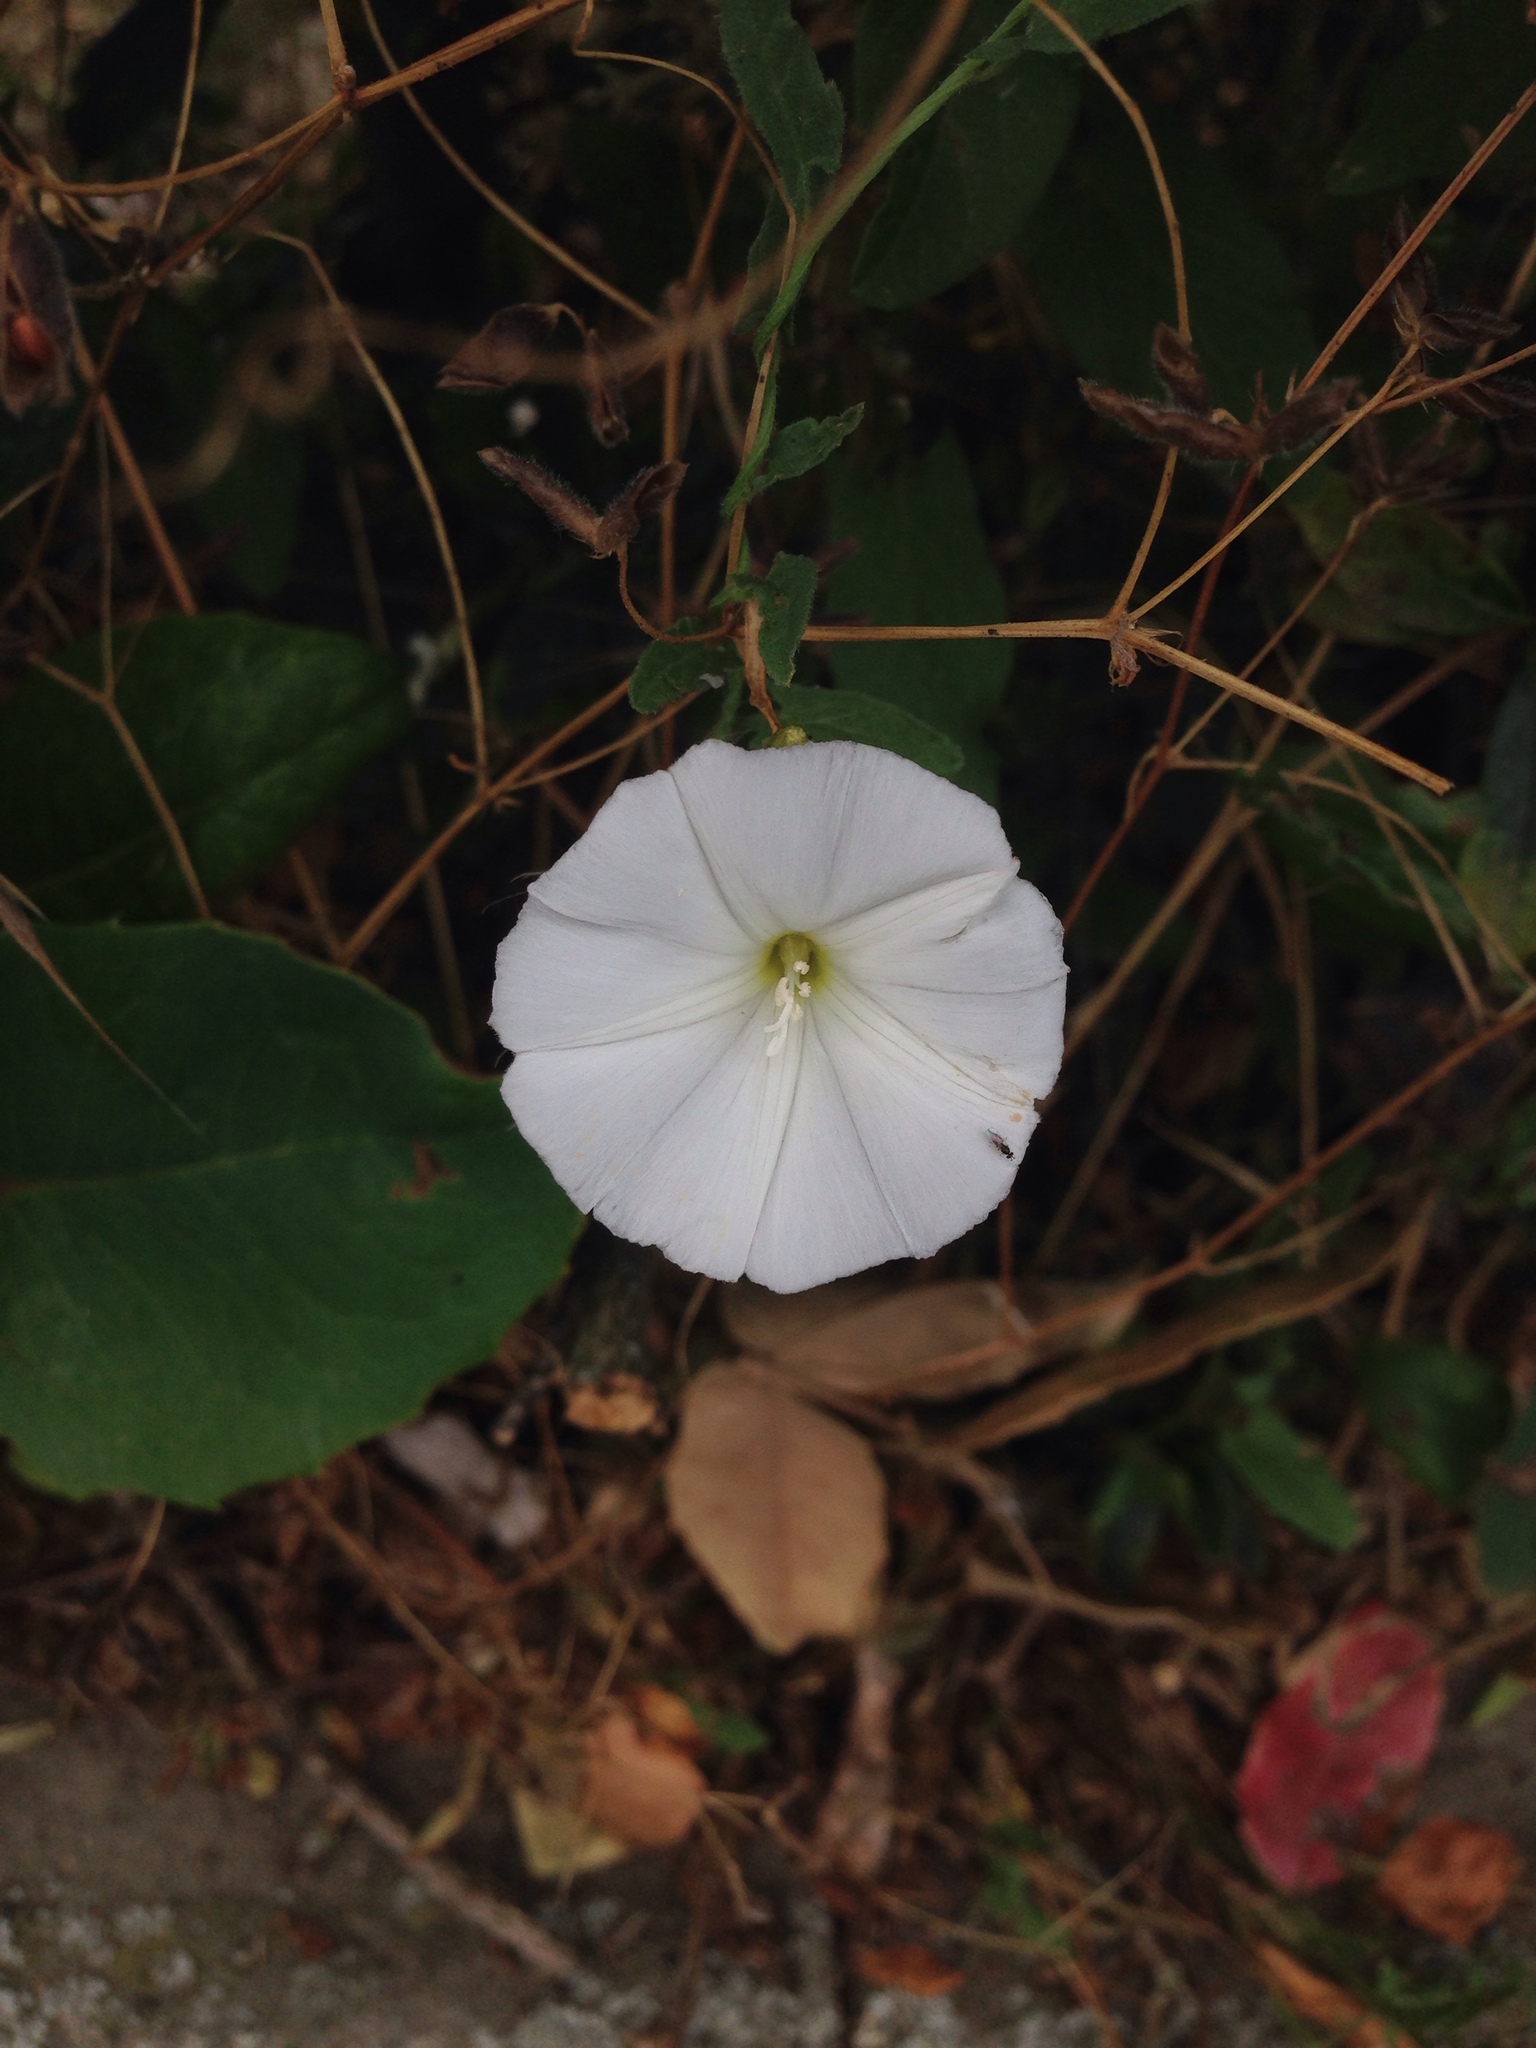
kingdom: Plantae
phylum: Tracheophyta
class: Magnoliopsida
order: Solanales
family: Convolvulaceae
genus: Convolvulus
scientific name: Convolvulus arvensis
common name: Field bindweed
